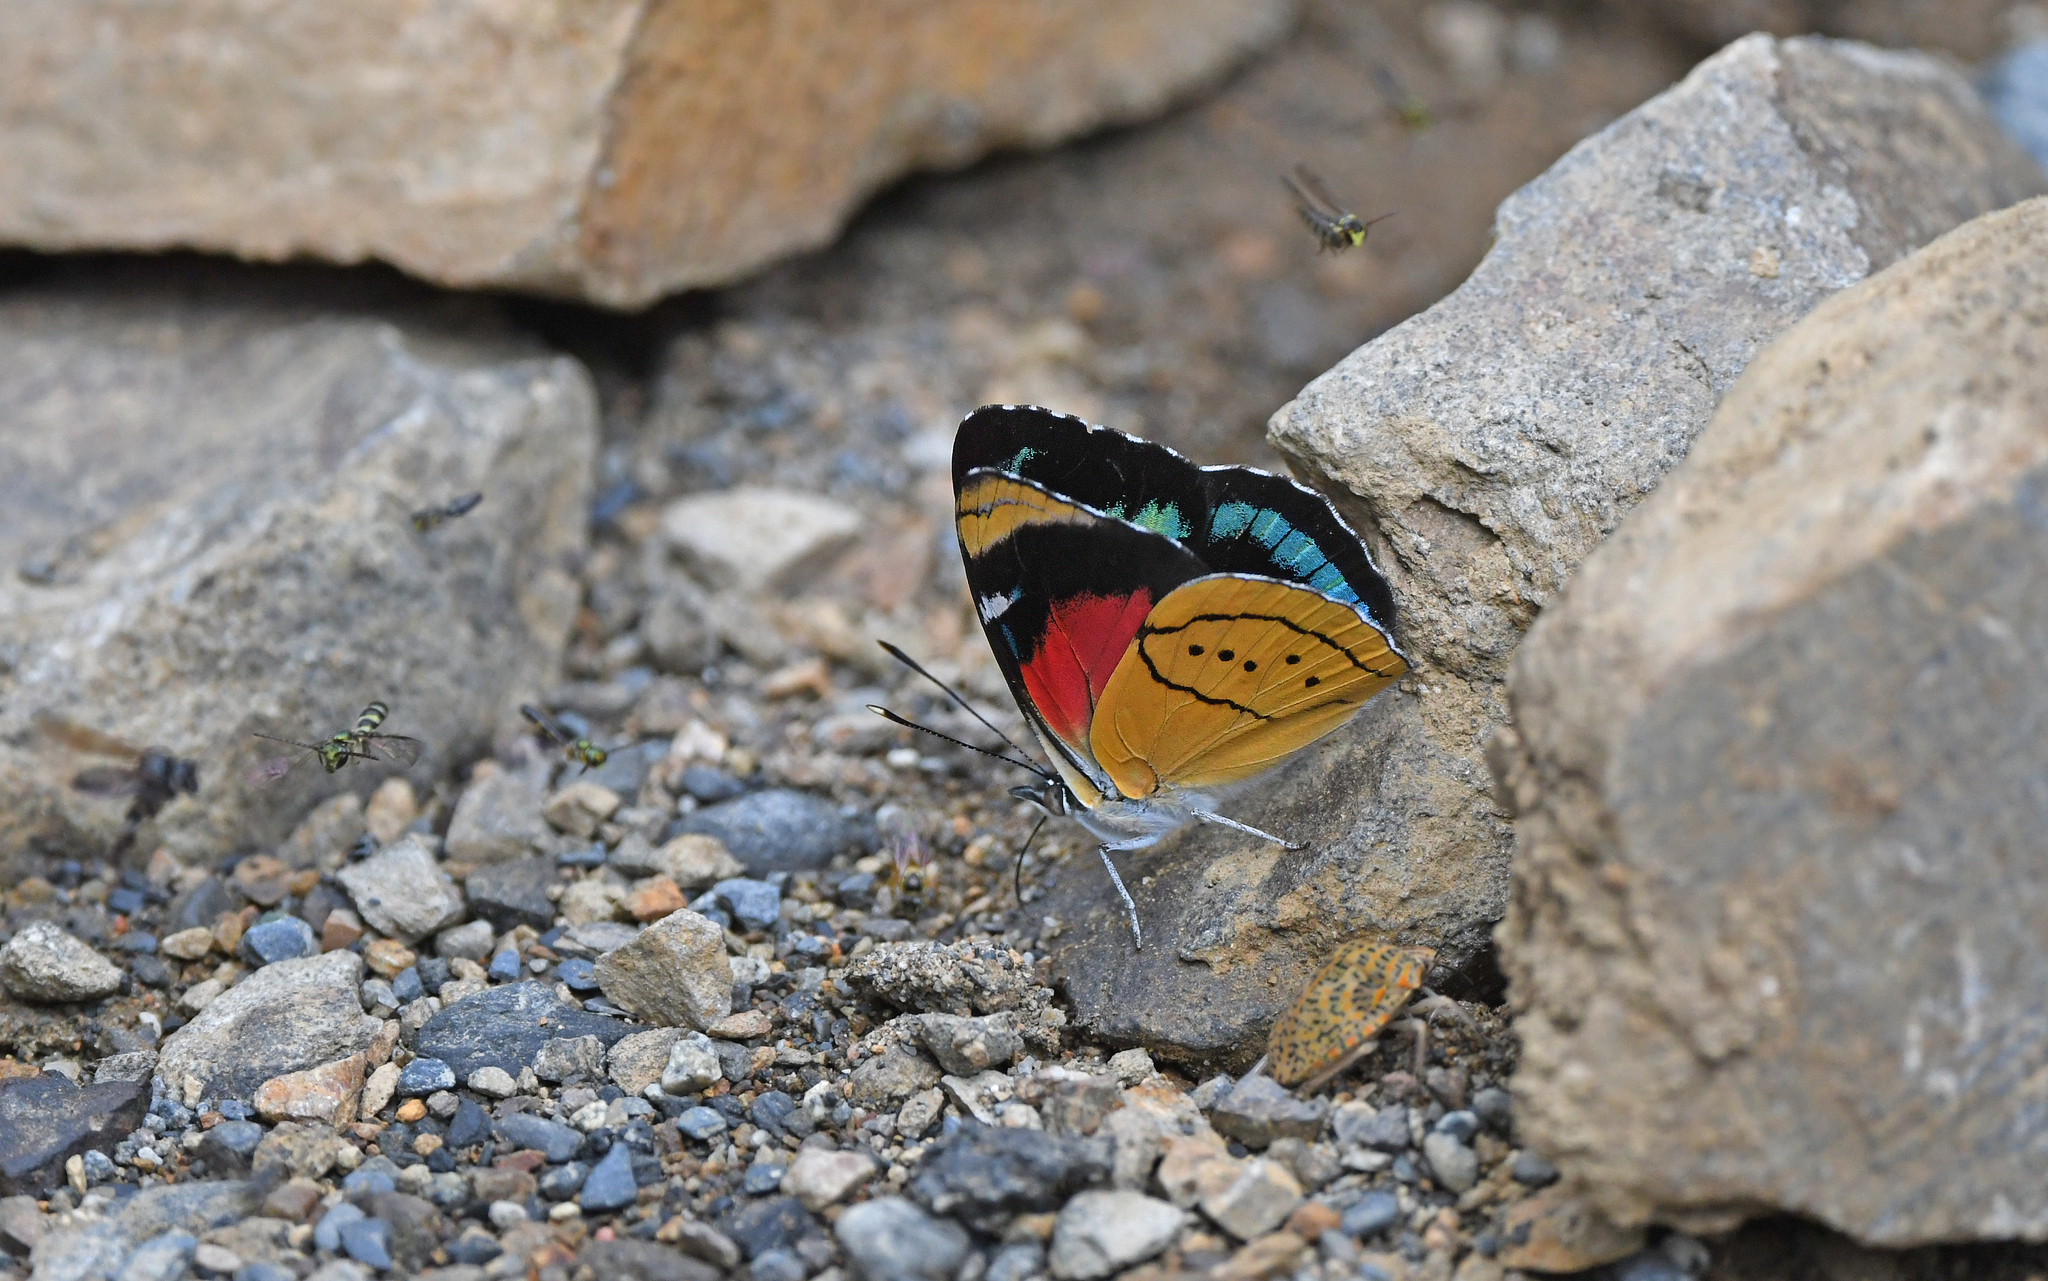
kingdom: Animalia
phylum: Arthropoda
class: Insecta
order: Lepidoptera
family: Nymphalidae
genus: Perisama
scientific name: Perisama camelita
